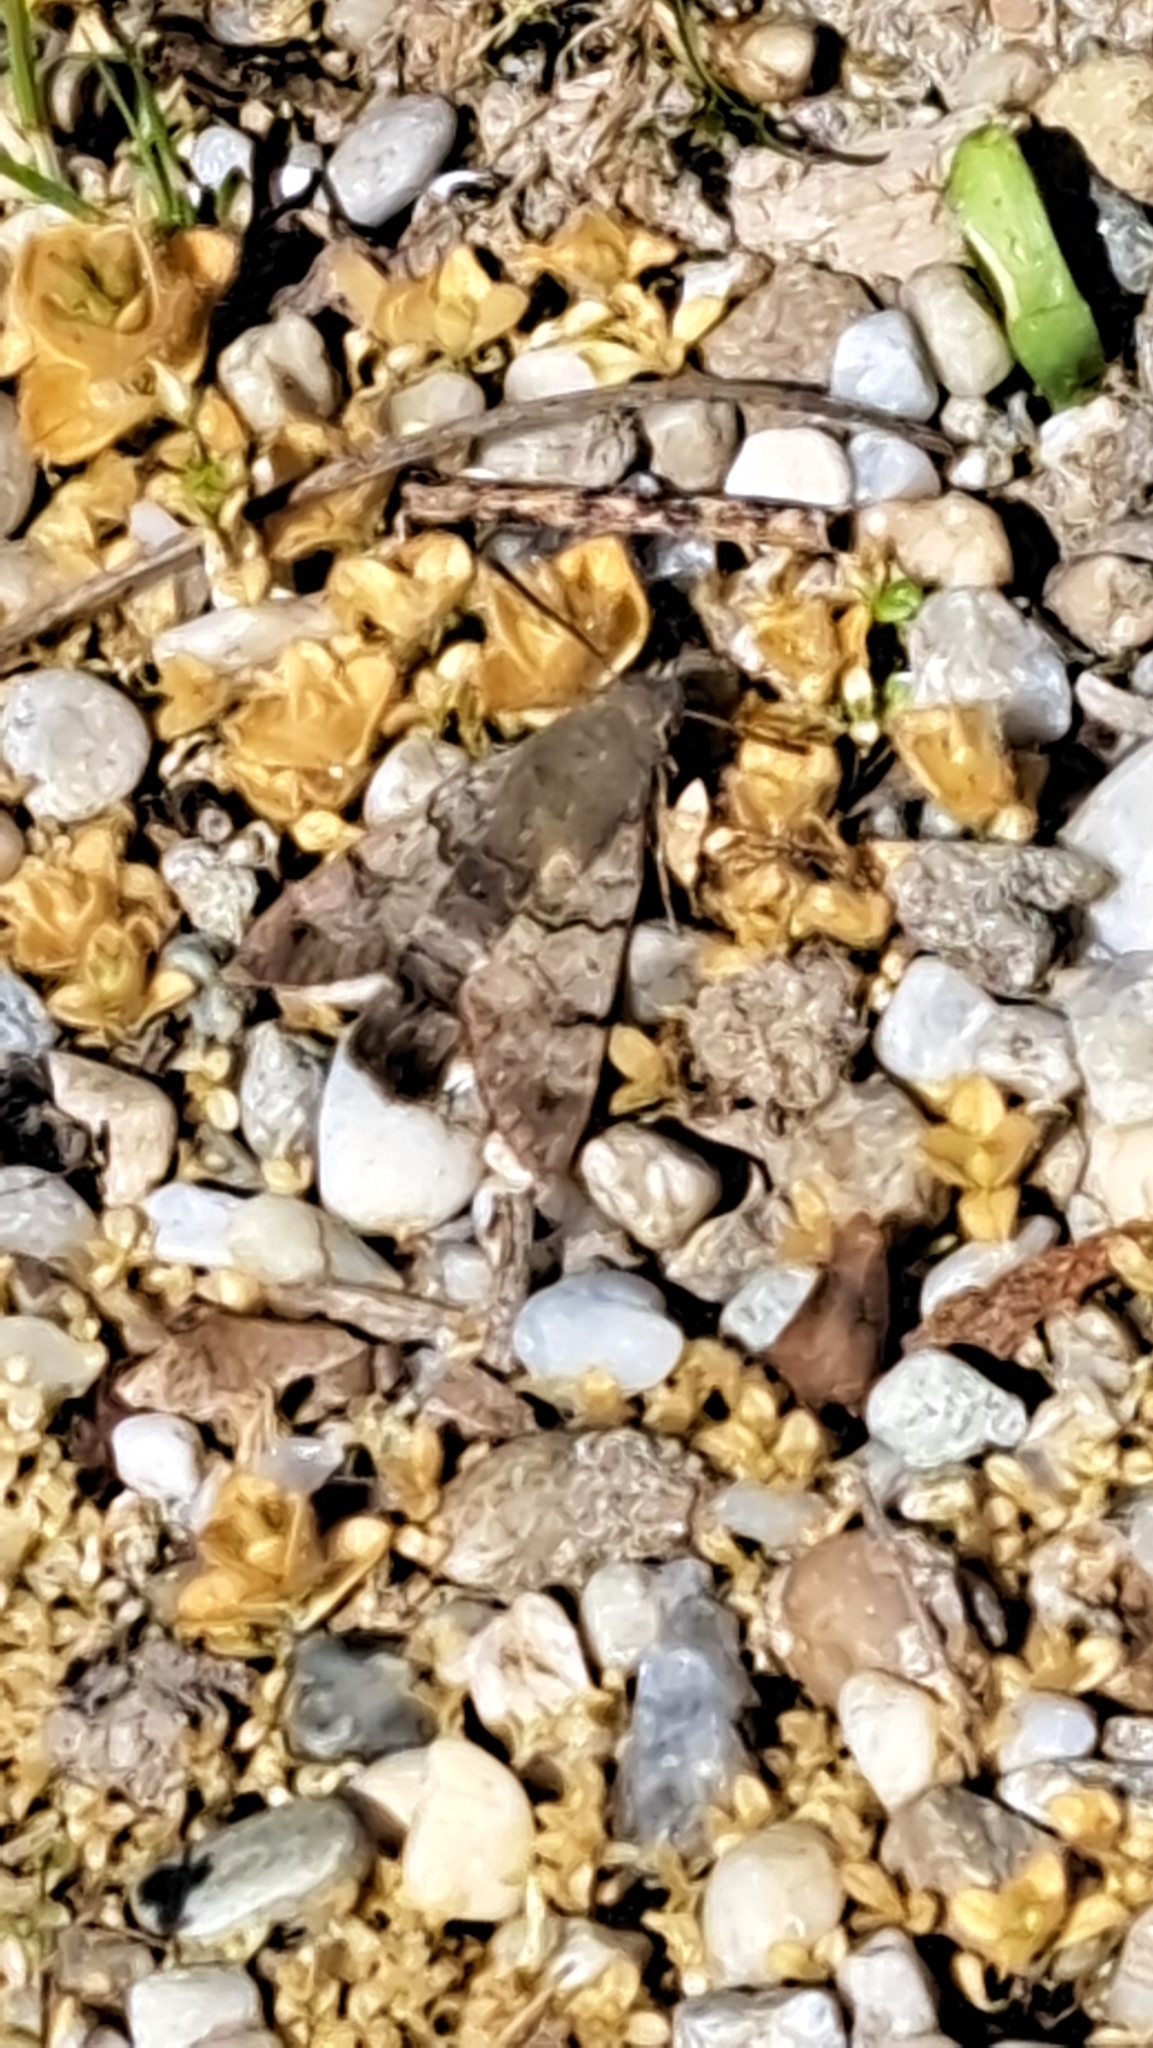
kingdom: Animalia
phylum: Arthropoda
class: Insecta
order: Lepidoptera
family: Sphingidae
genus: Macroglossum
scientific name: Macroglossum stellatarum
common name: Humming-bird hawk-moth
